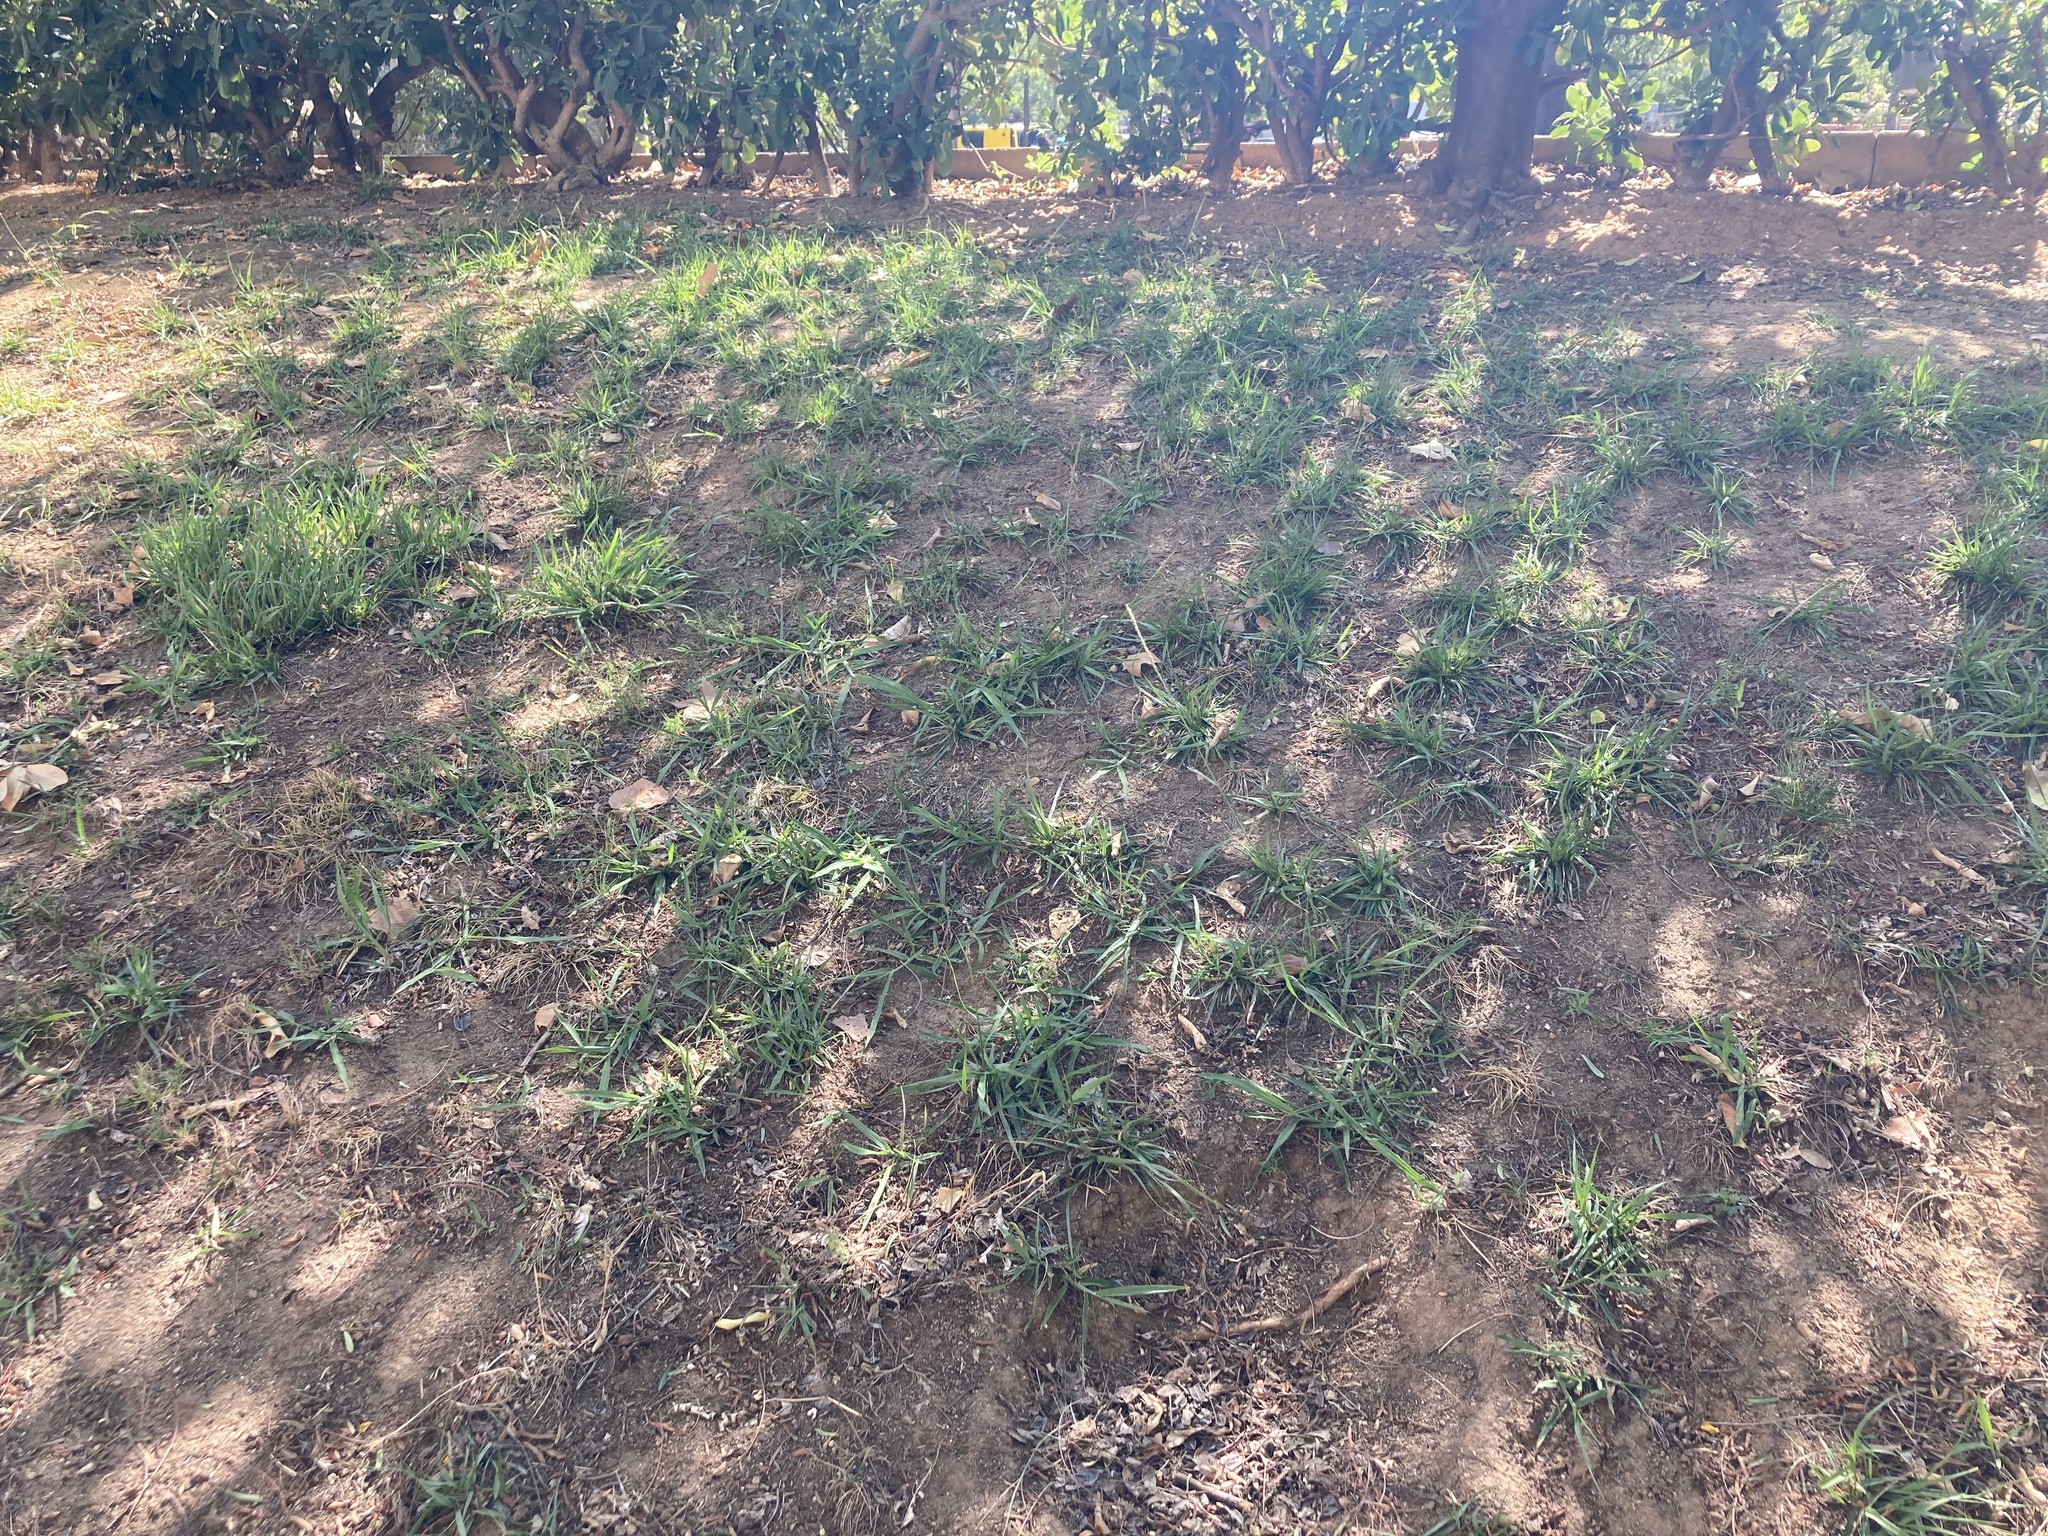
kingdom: Plantae
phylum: Tracheophyta
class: Liliopsida
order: Poales
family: Poaceae
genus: Sporobolus
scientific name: Sporobolus indicus
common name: Smut grass
